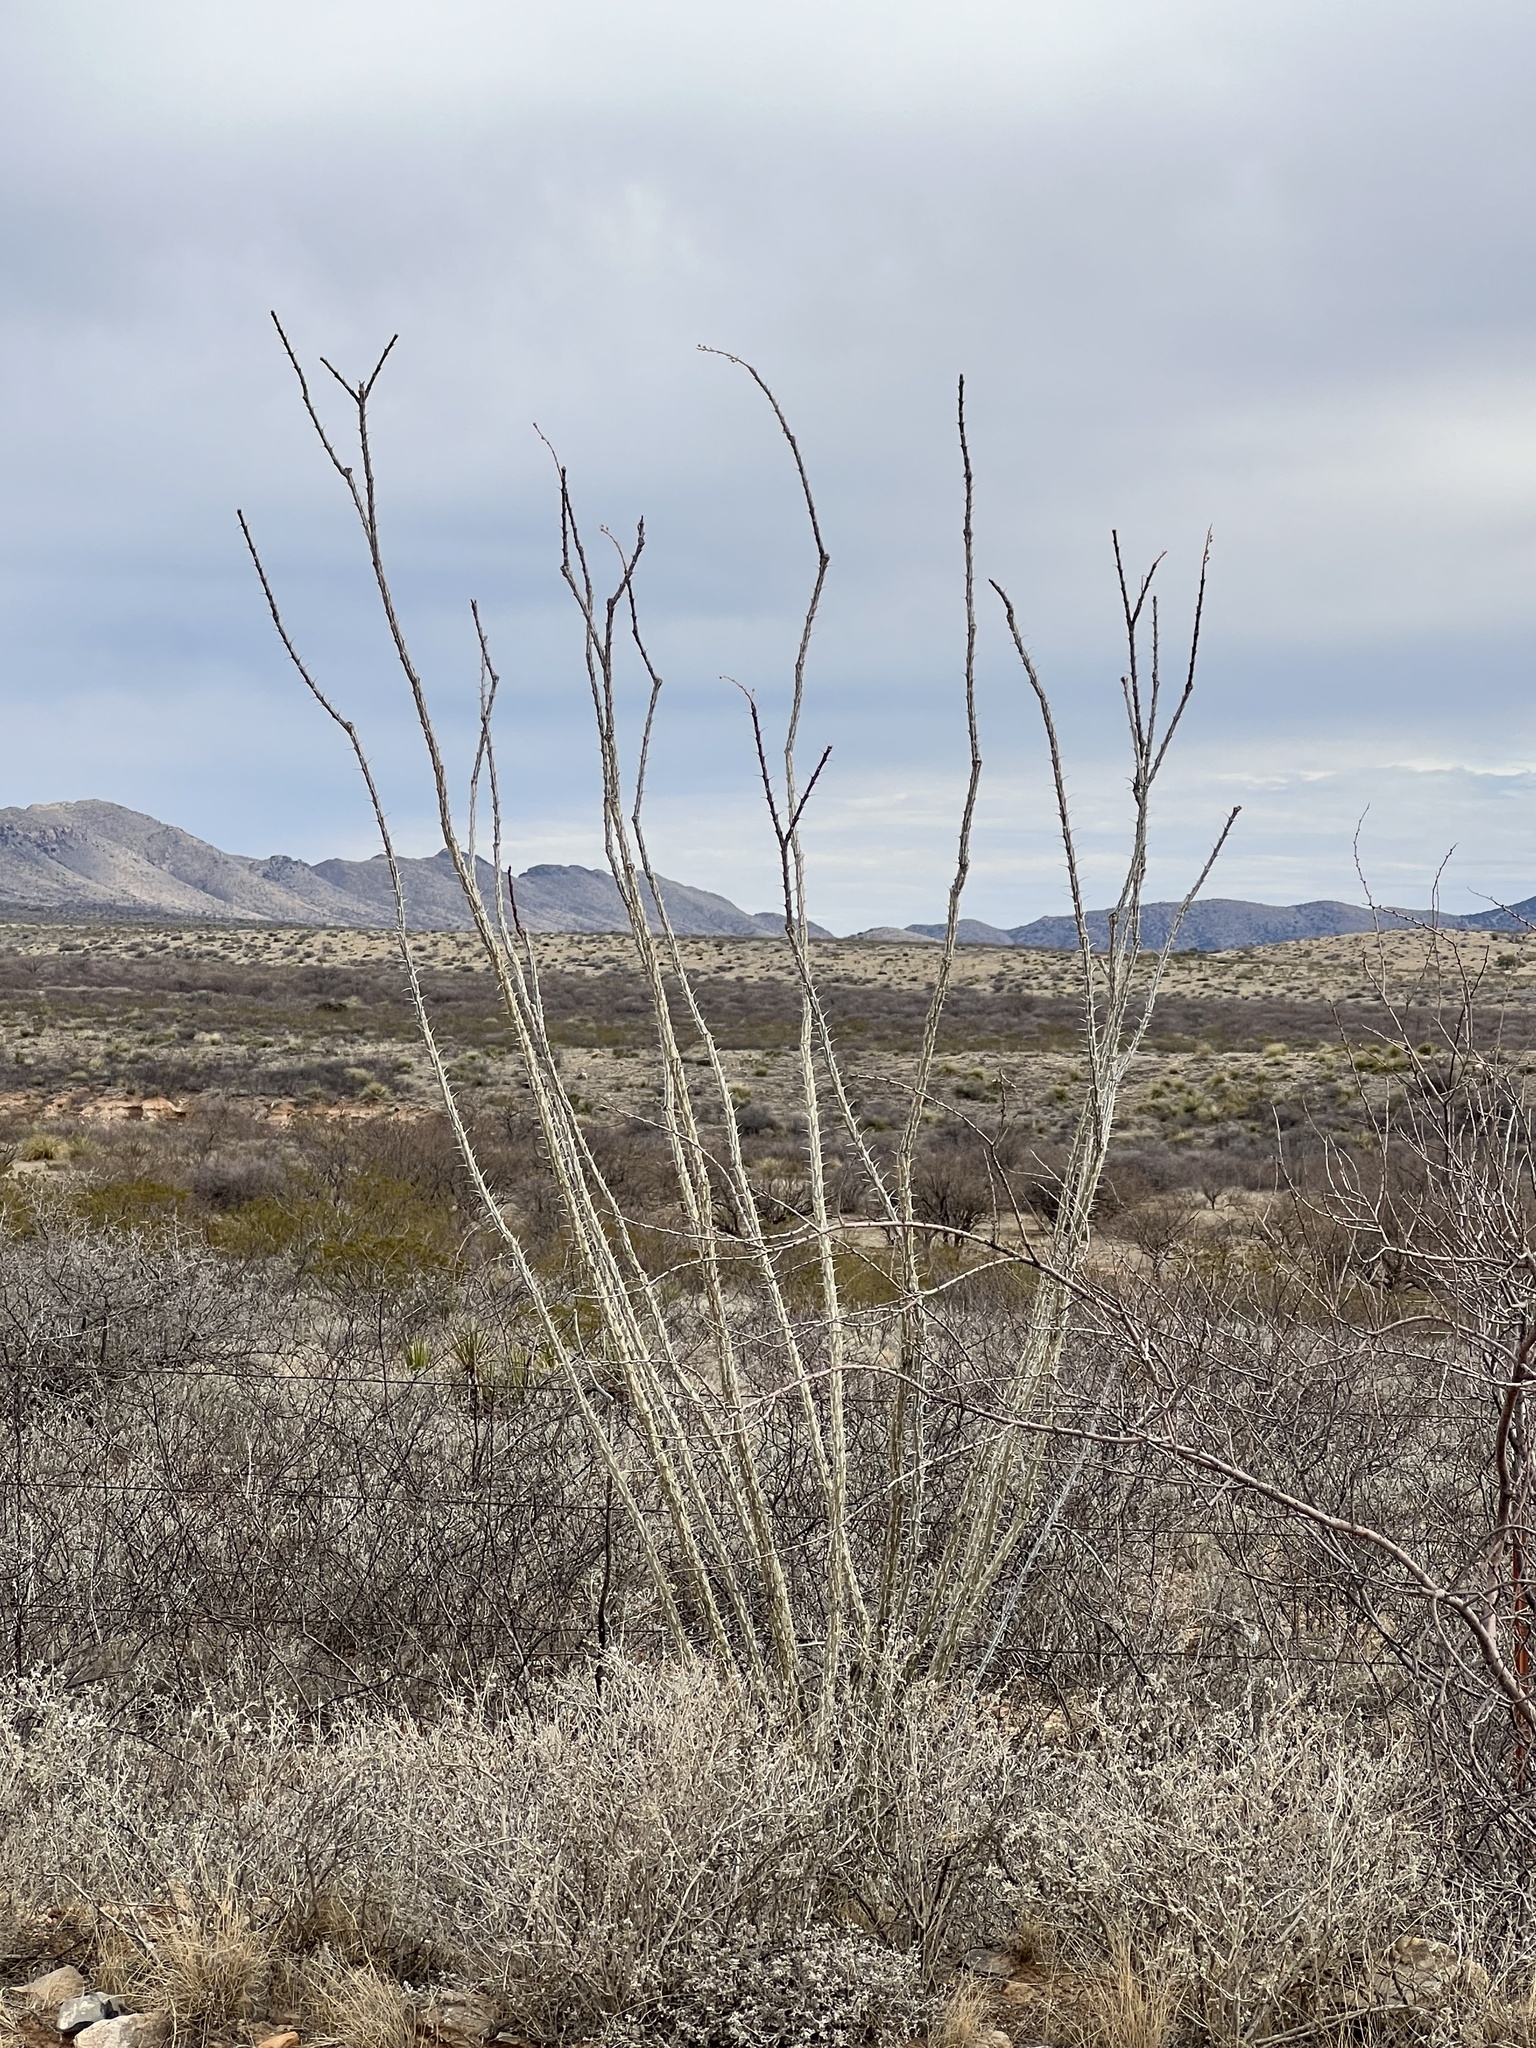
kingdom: Plantae
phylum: Tracheophyta
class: Magnoliopsida
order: Ericales
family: Fouquieriaceae
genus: Fouquieria
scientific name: Fouquieria splendens
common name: Vine-cactus
